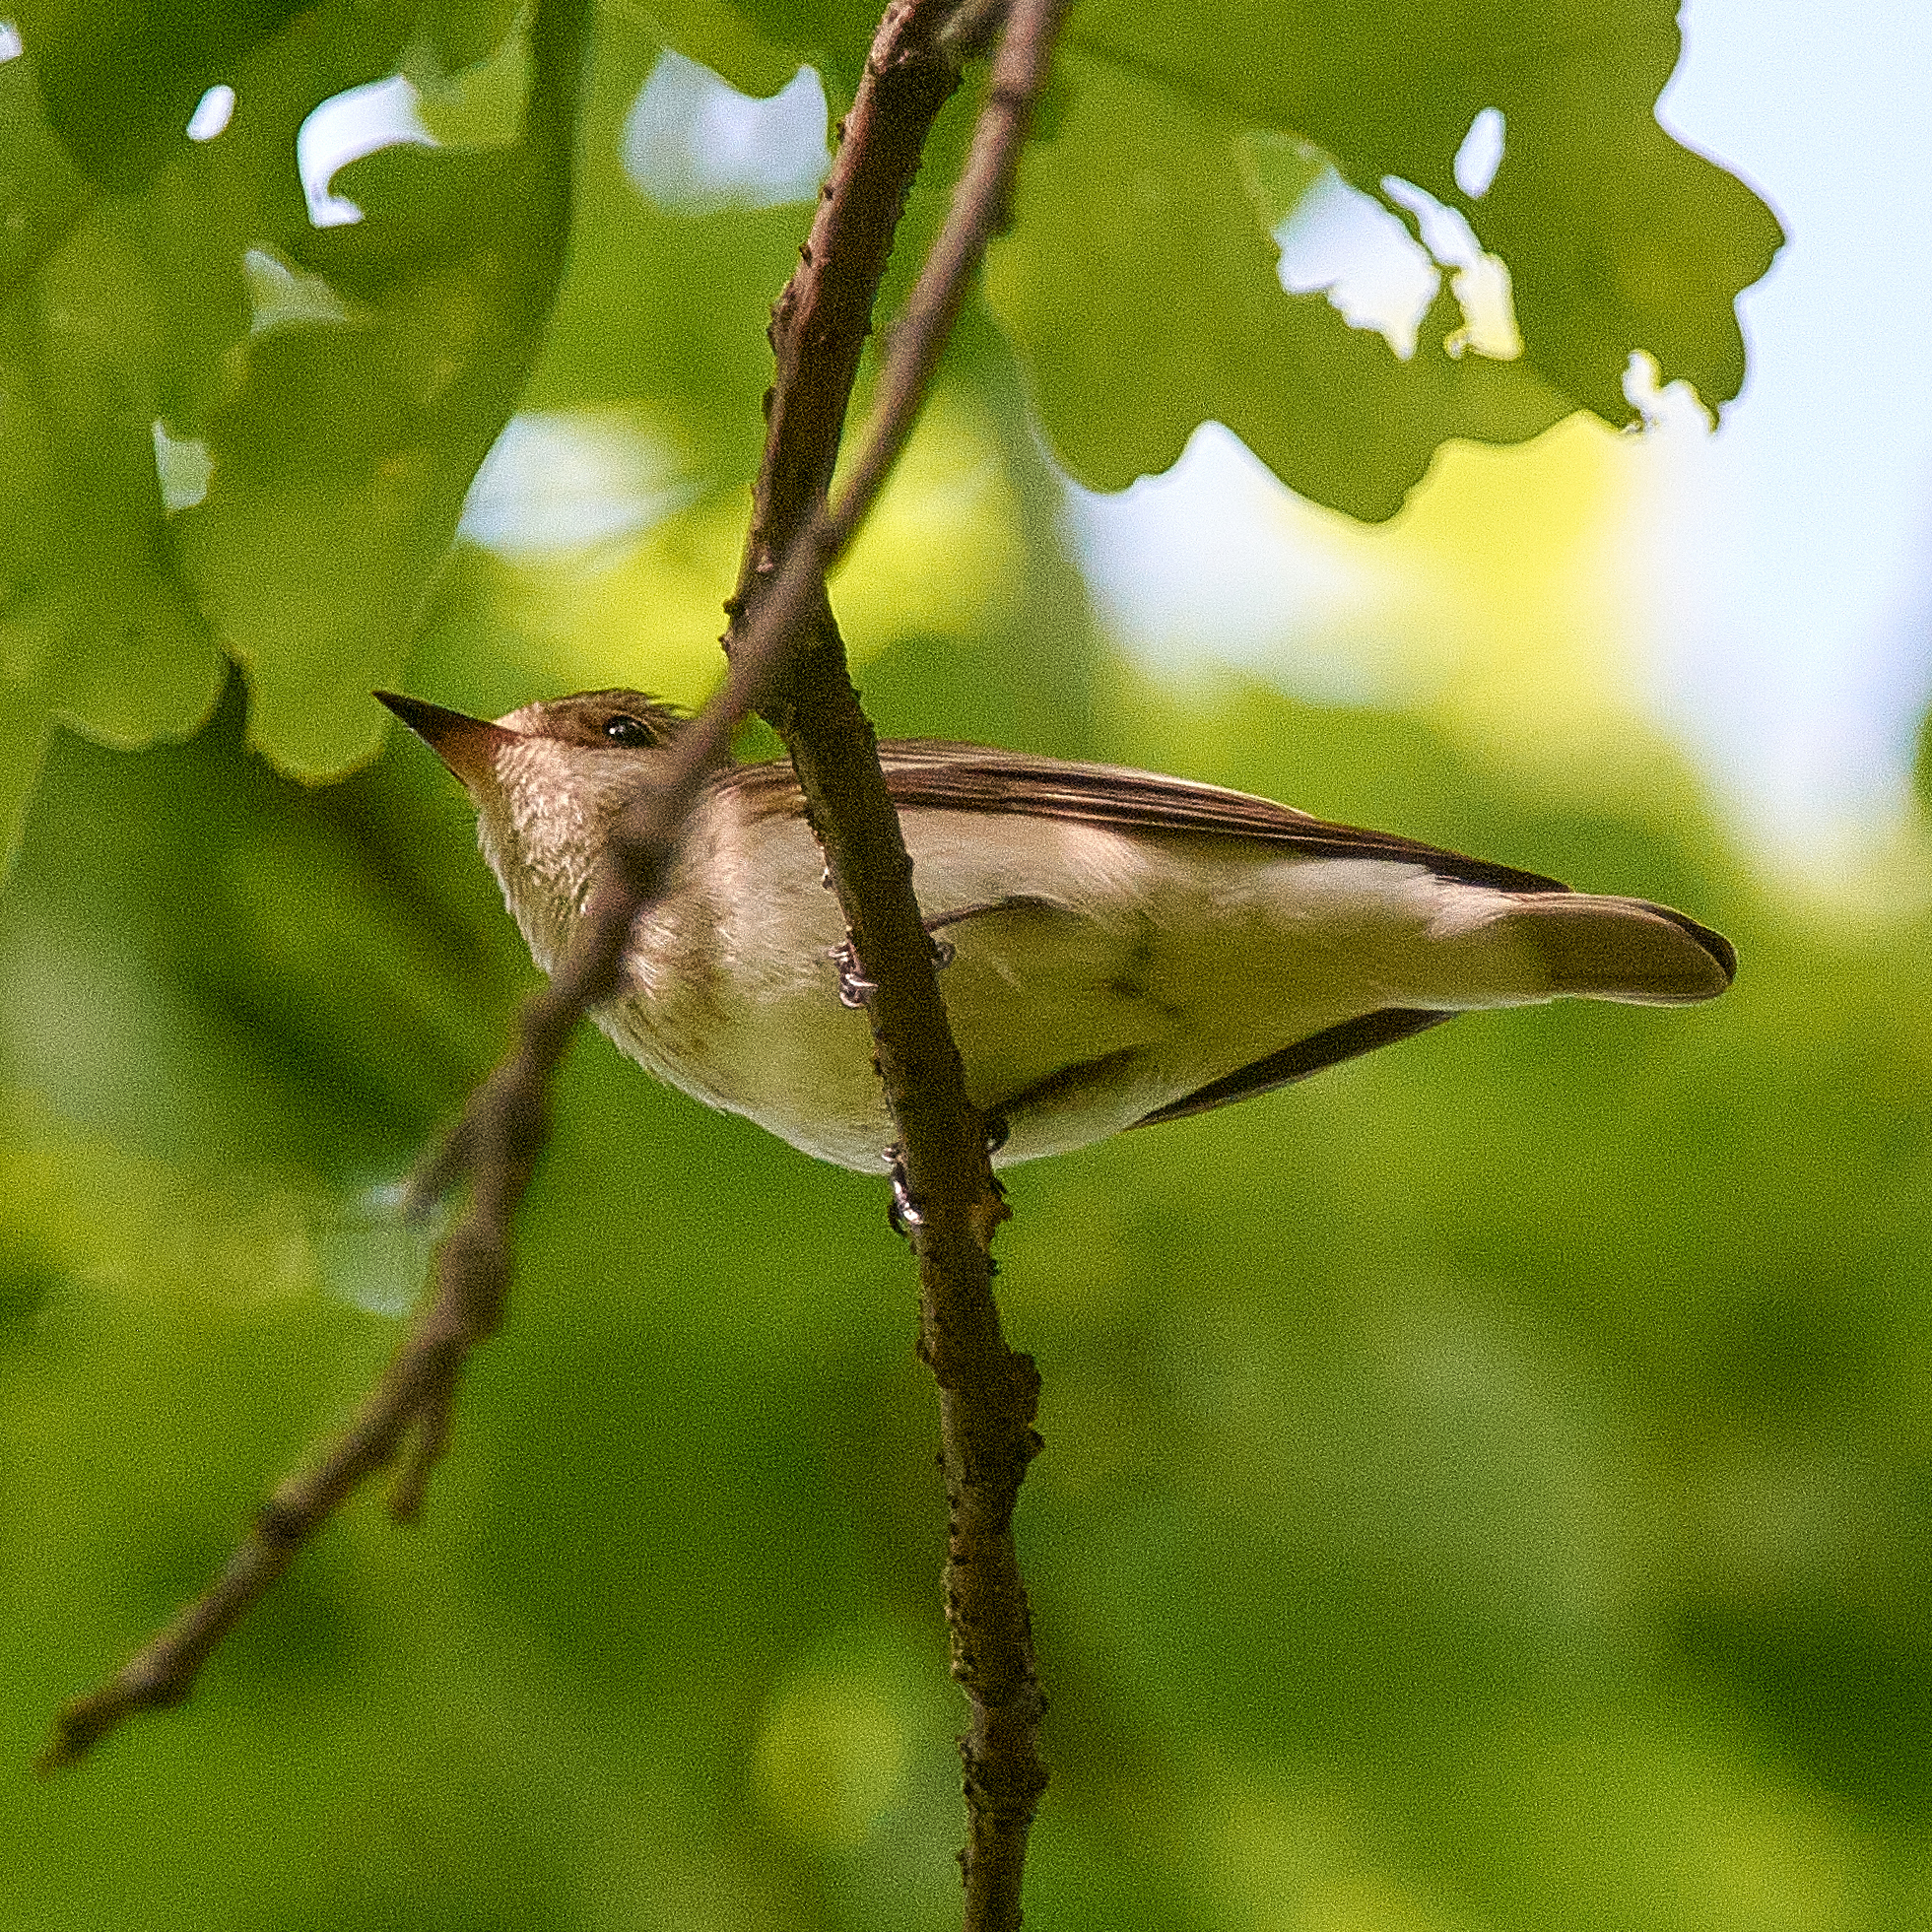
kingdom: Animalia
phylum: Chordata
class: Aves
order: Passeriformes
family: Muscicapidae
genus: Muscicapa
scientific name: Muscicapa striata
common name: Spotted flycatcher
